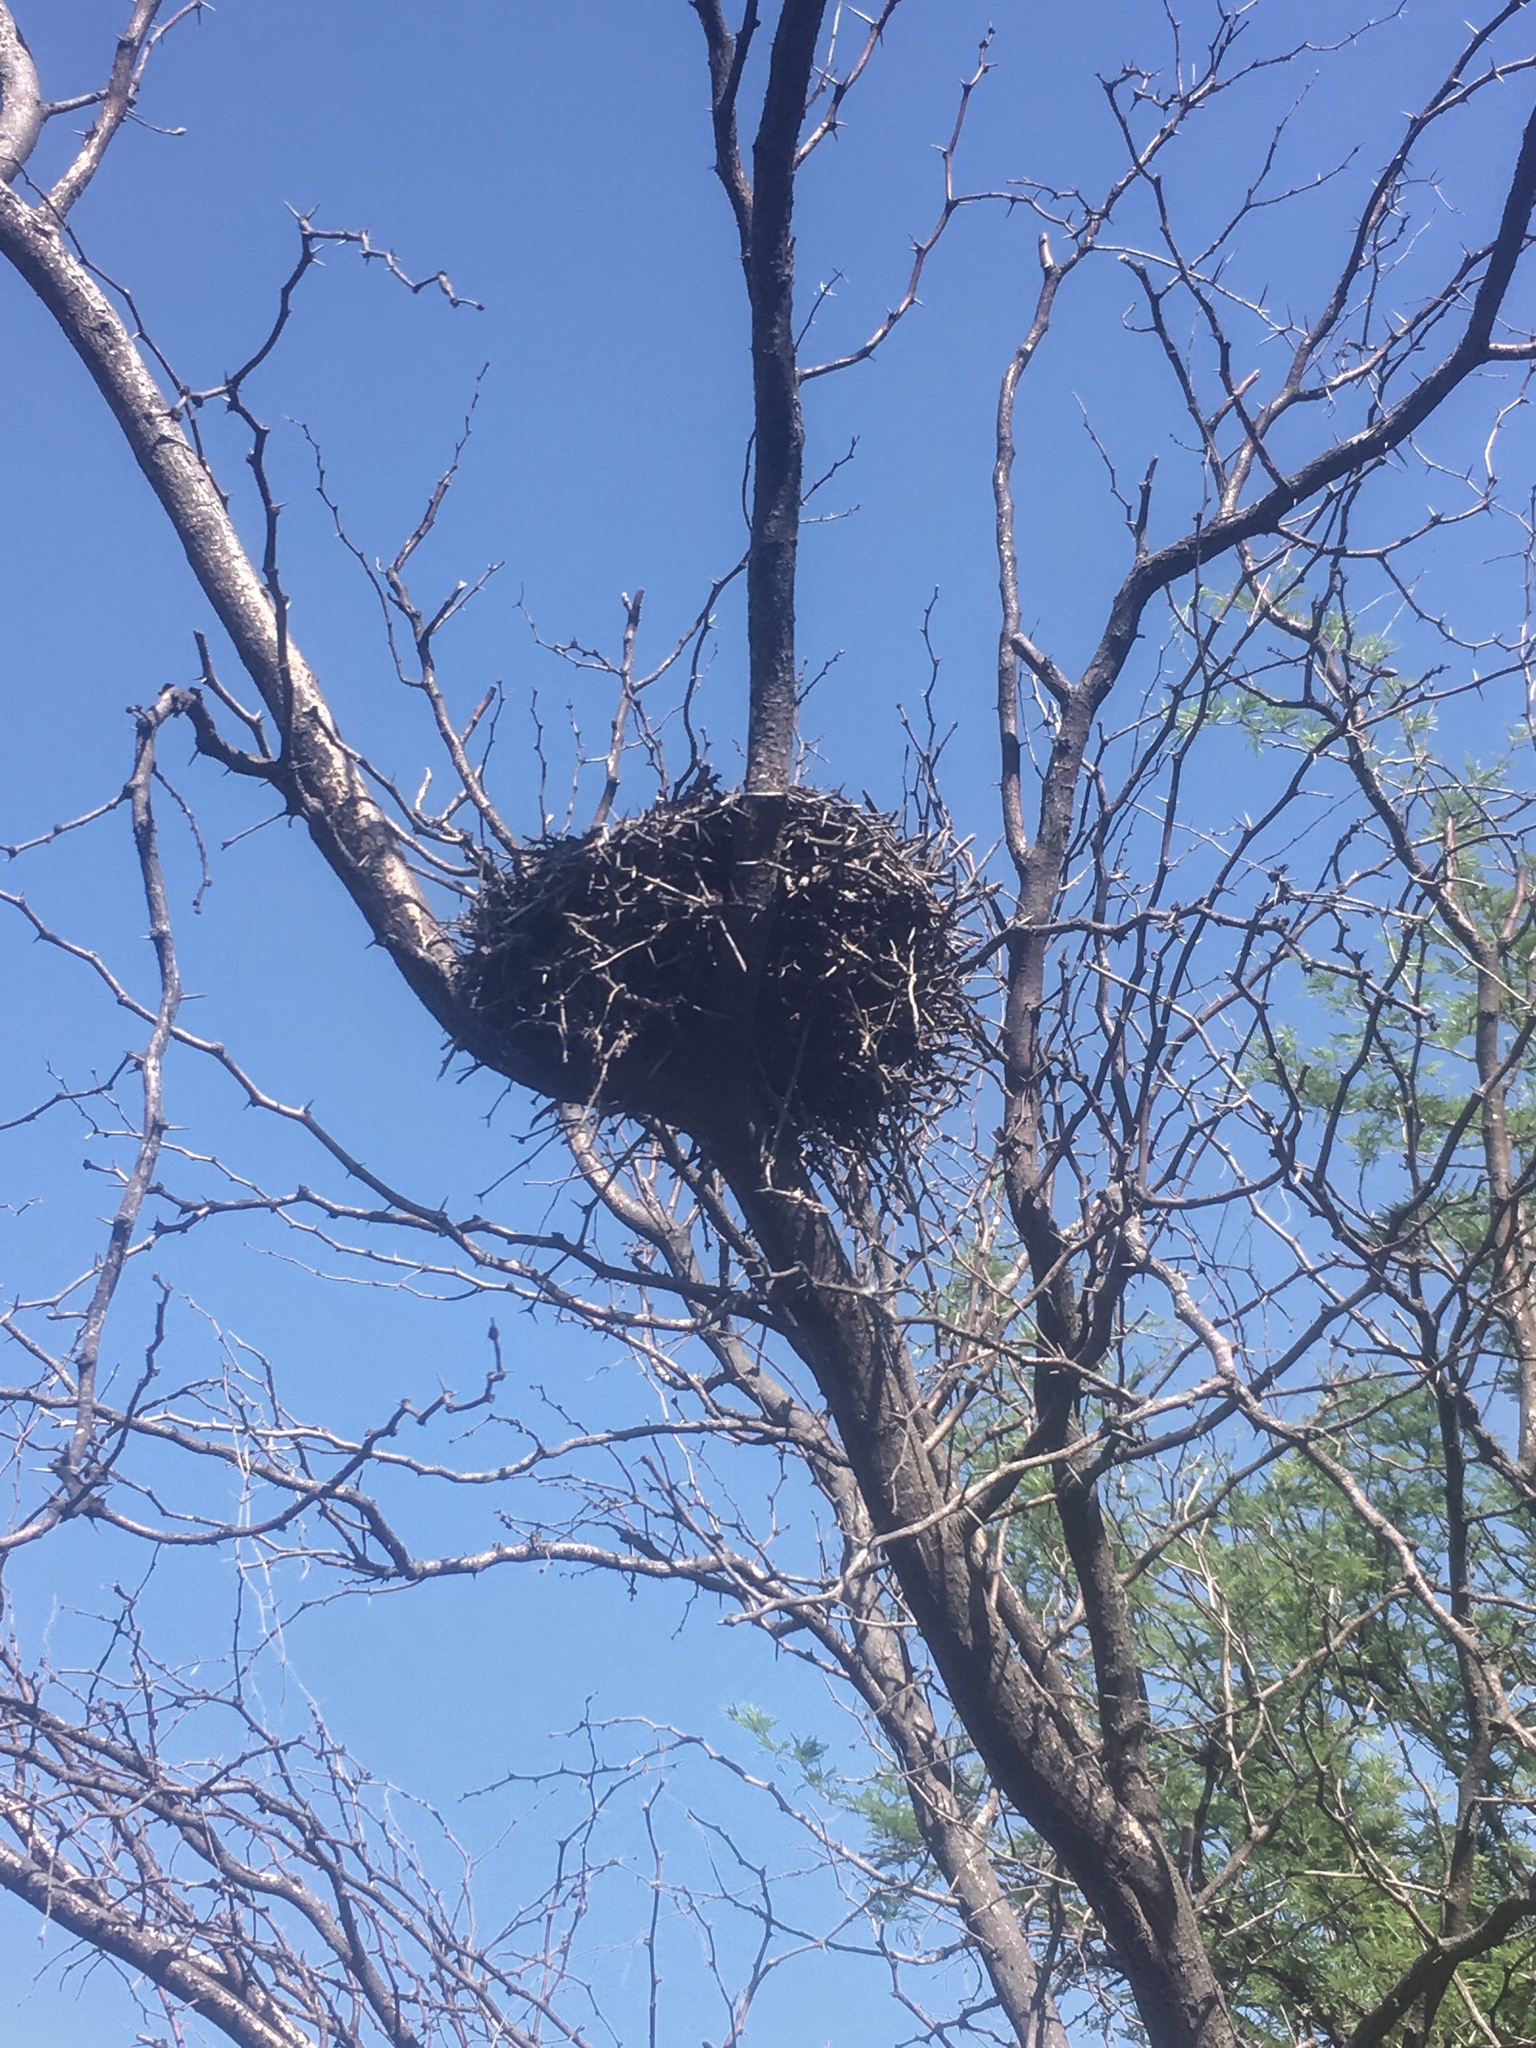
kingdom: Animalia
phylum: Chordata
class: Aves
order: Passeriformes
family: Furnariidae
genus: Anumbius
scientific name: Anumbius annumbi
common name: Firewood-gatherer
